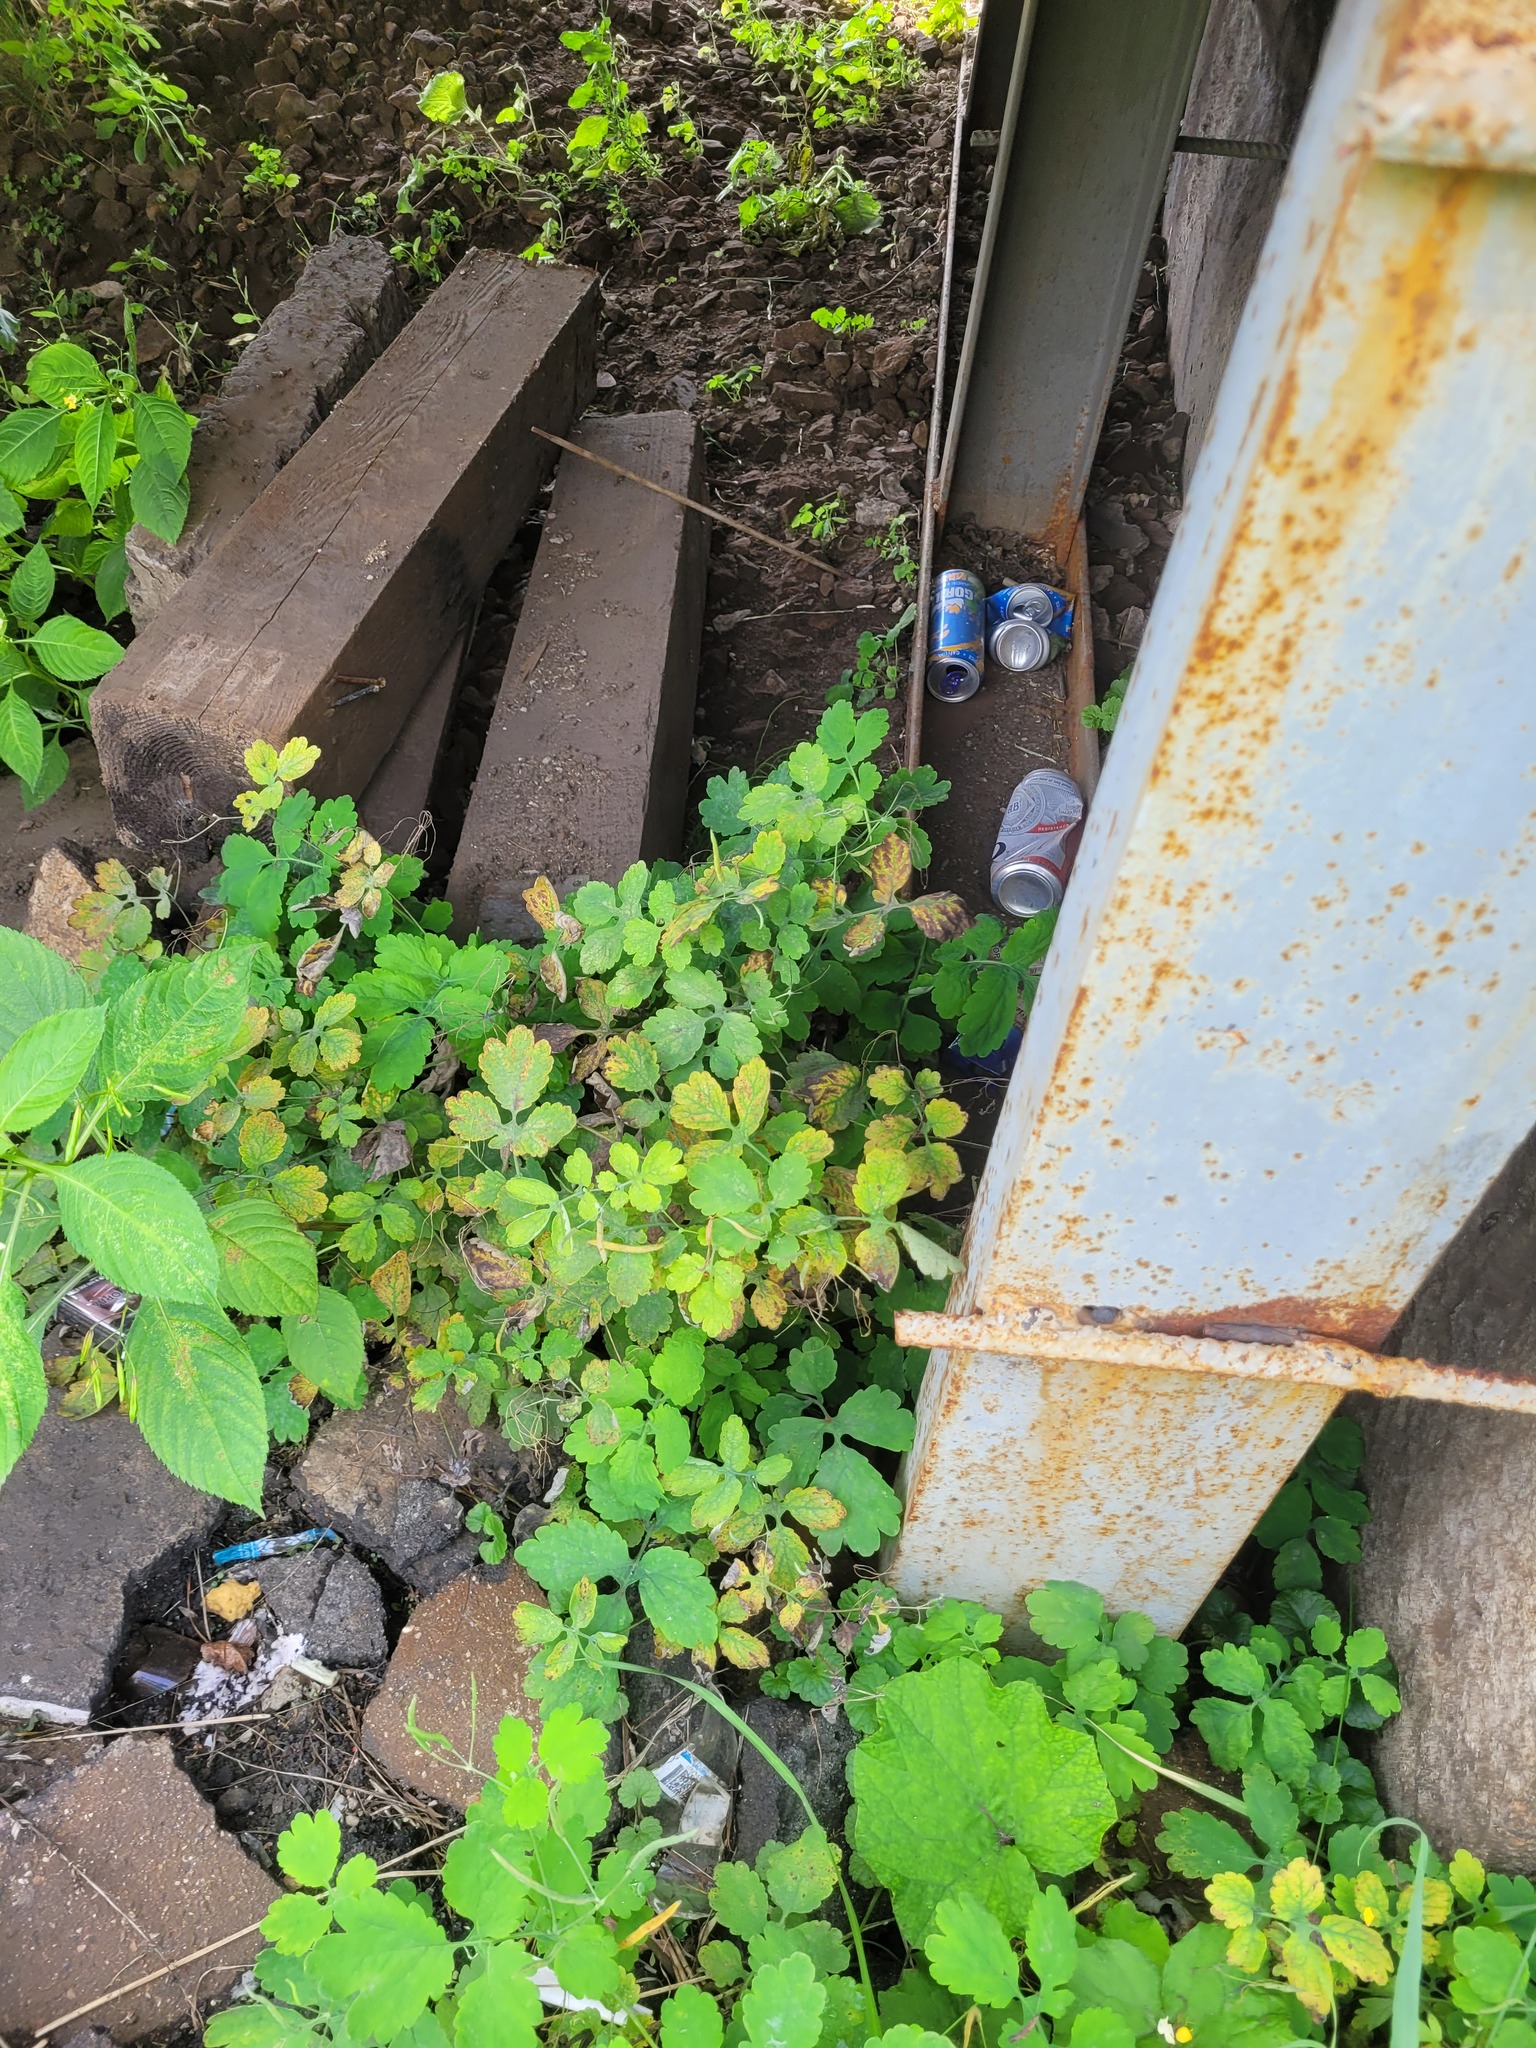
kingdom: Plantae
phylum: Tracheophyta
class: Magnoliopsida
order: Ranunculales
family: Papaveraceae
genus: Chelidonium
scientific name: Chelidonium majus
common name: Greater celandine
